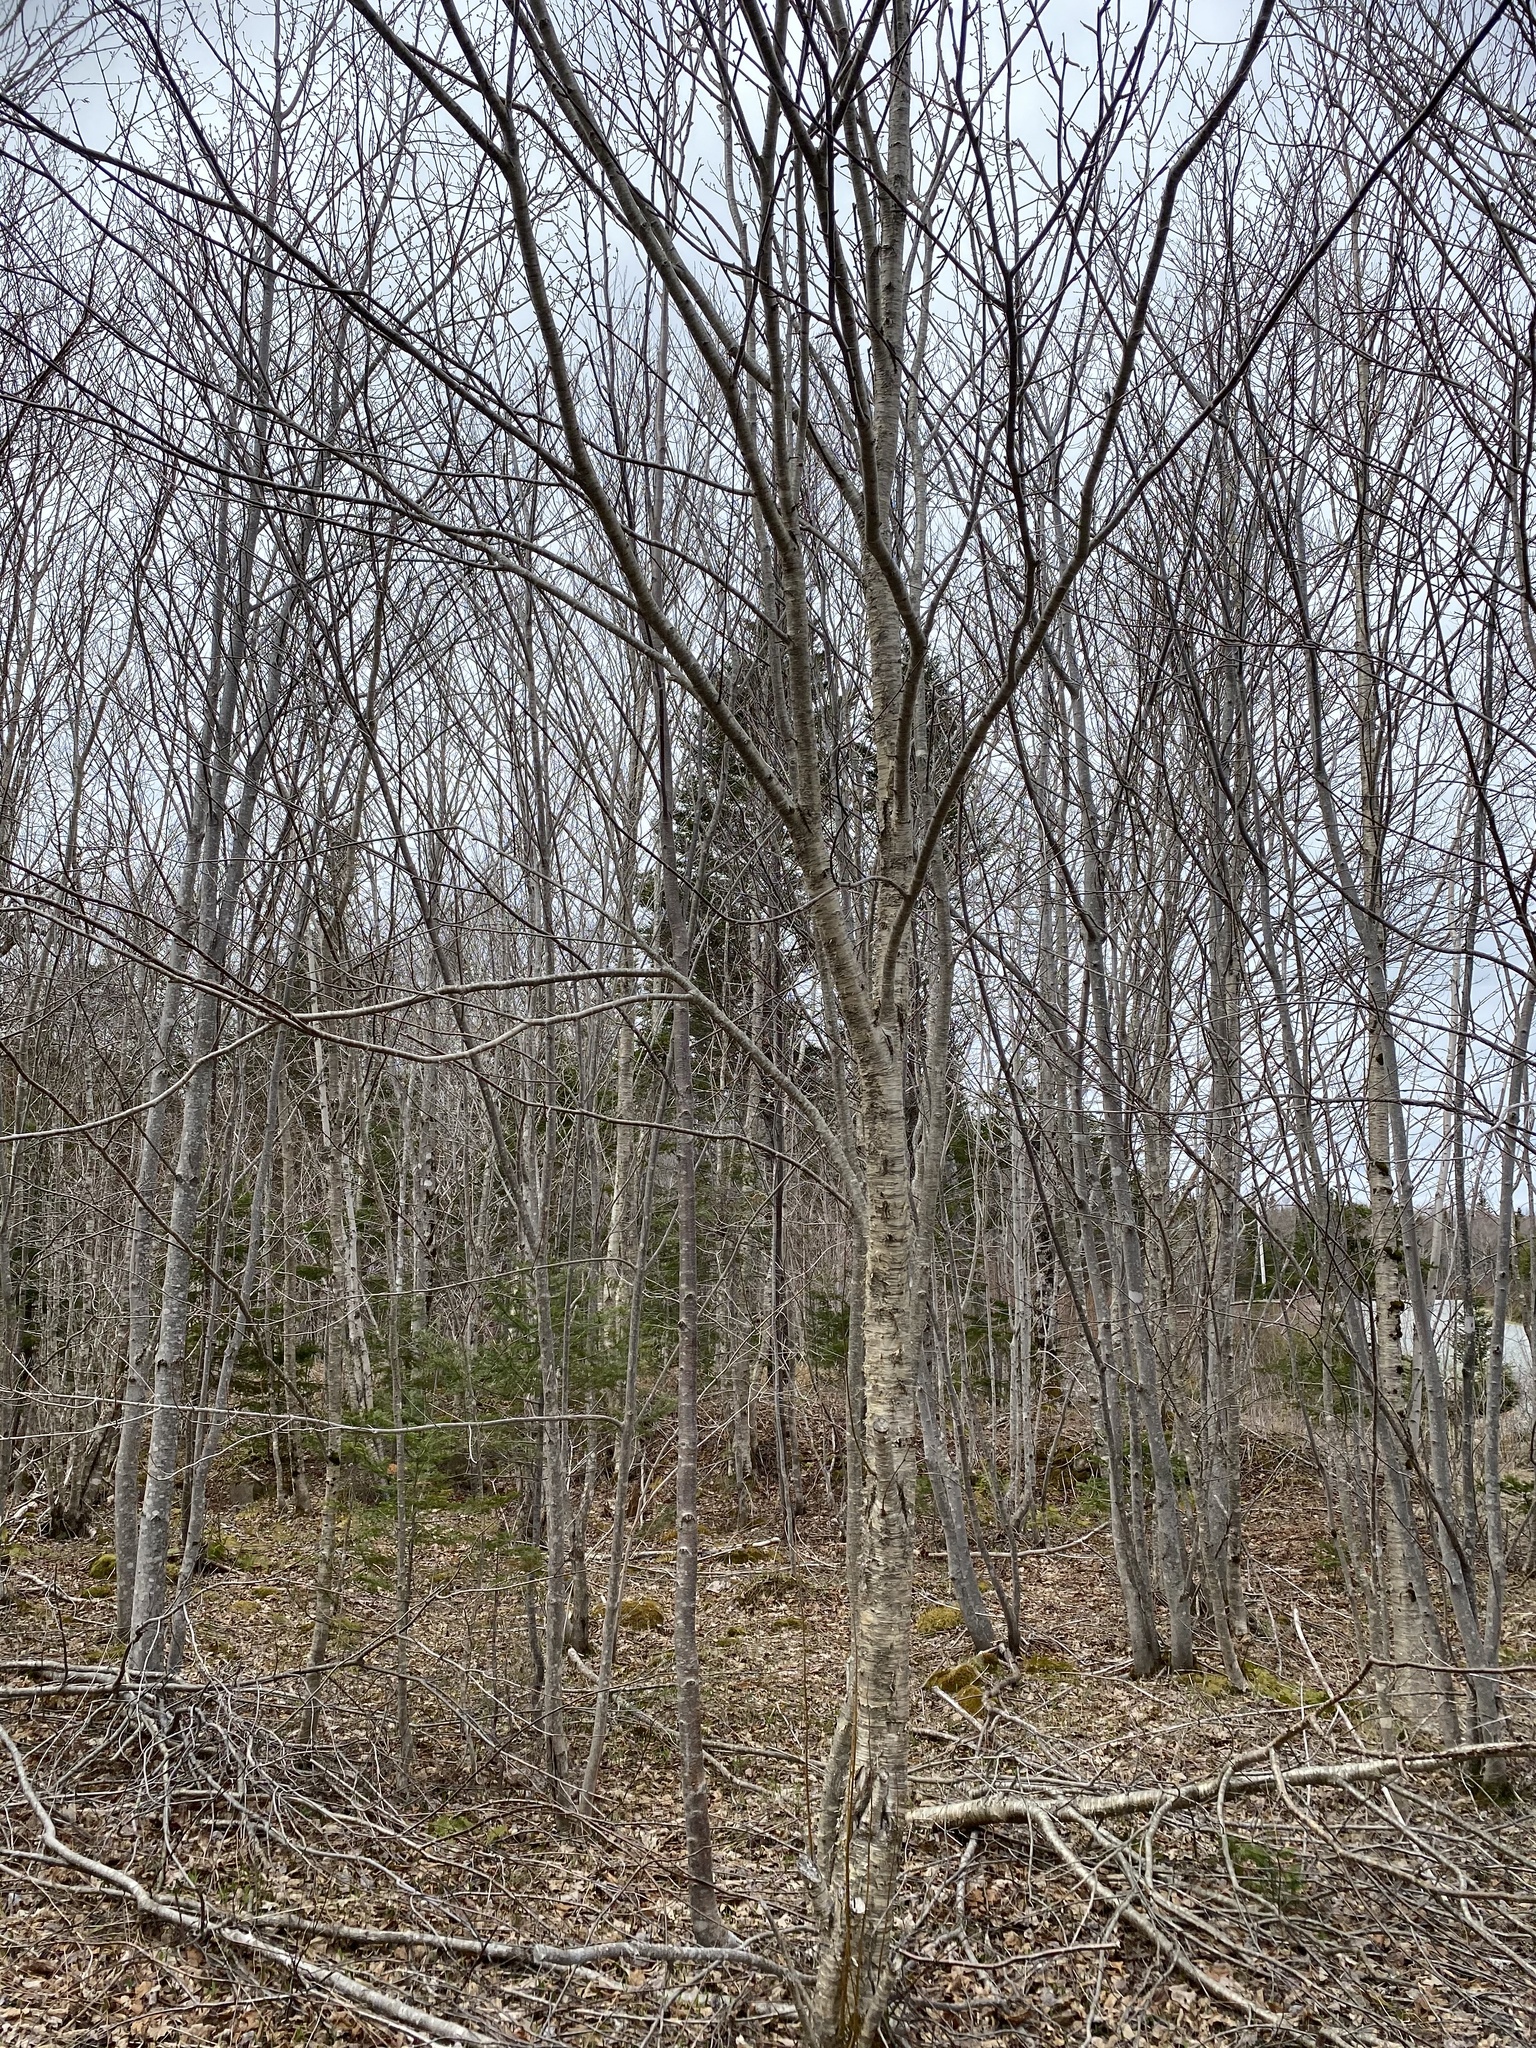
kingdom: Plantae
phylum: Tracheophyta
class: Magnoliopsida
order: Fagales
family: Betulaceae
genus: Betula
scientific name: Betula alleghaniensis
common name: Yellow birch
